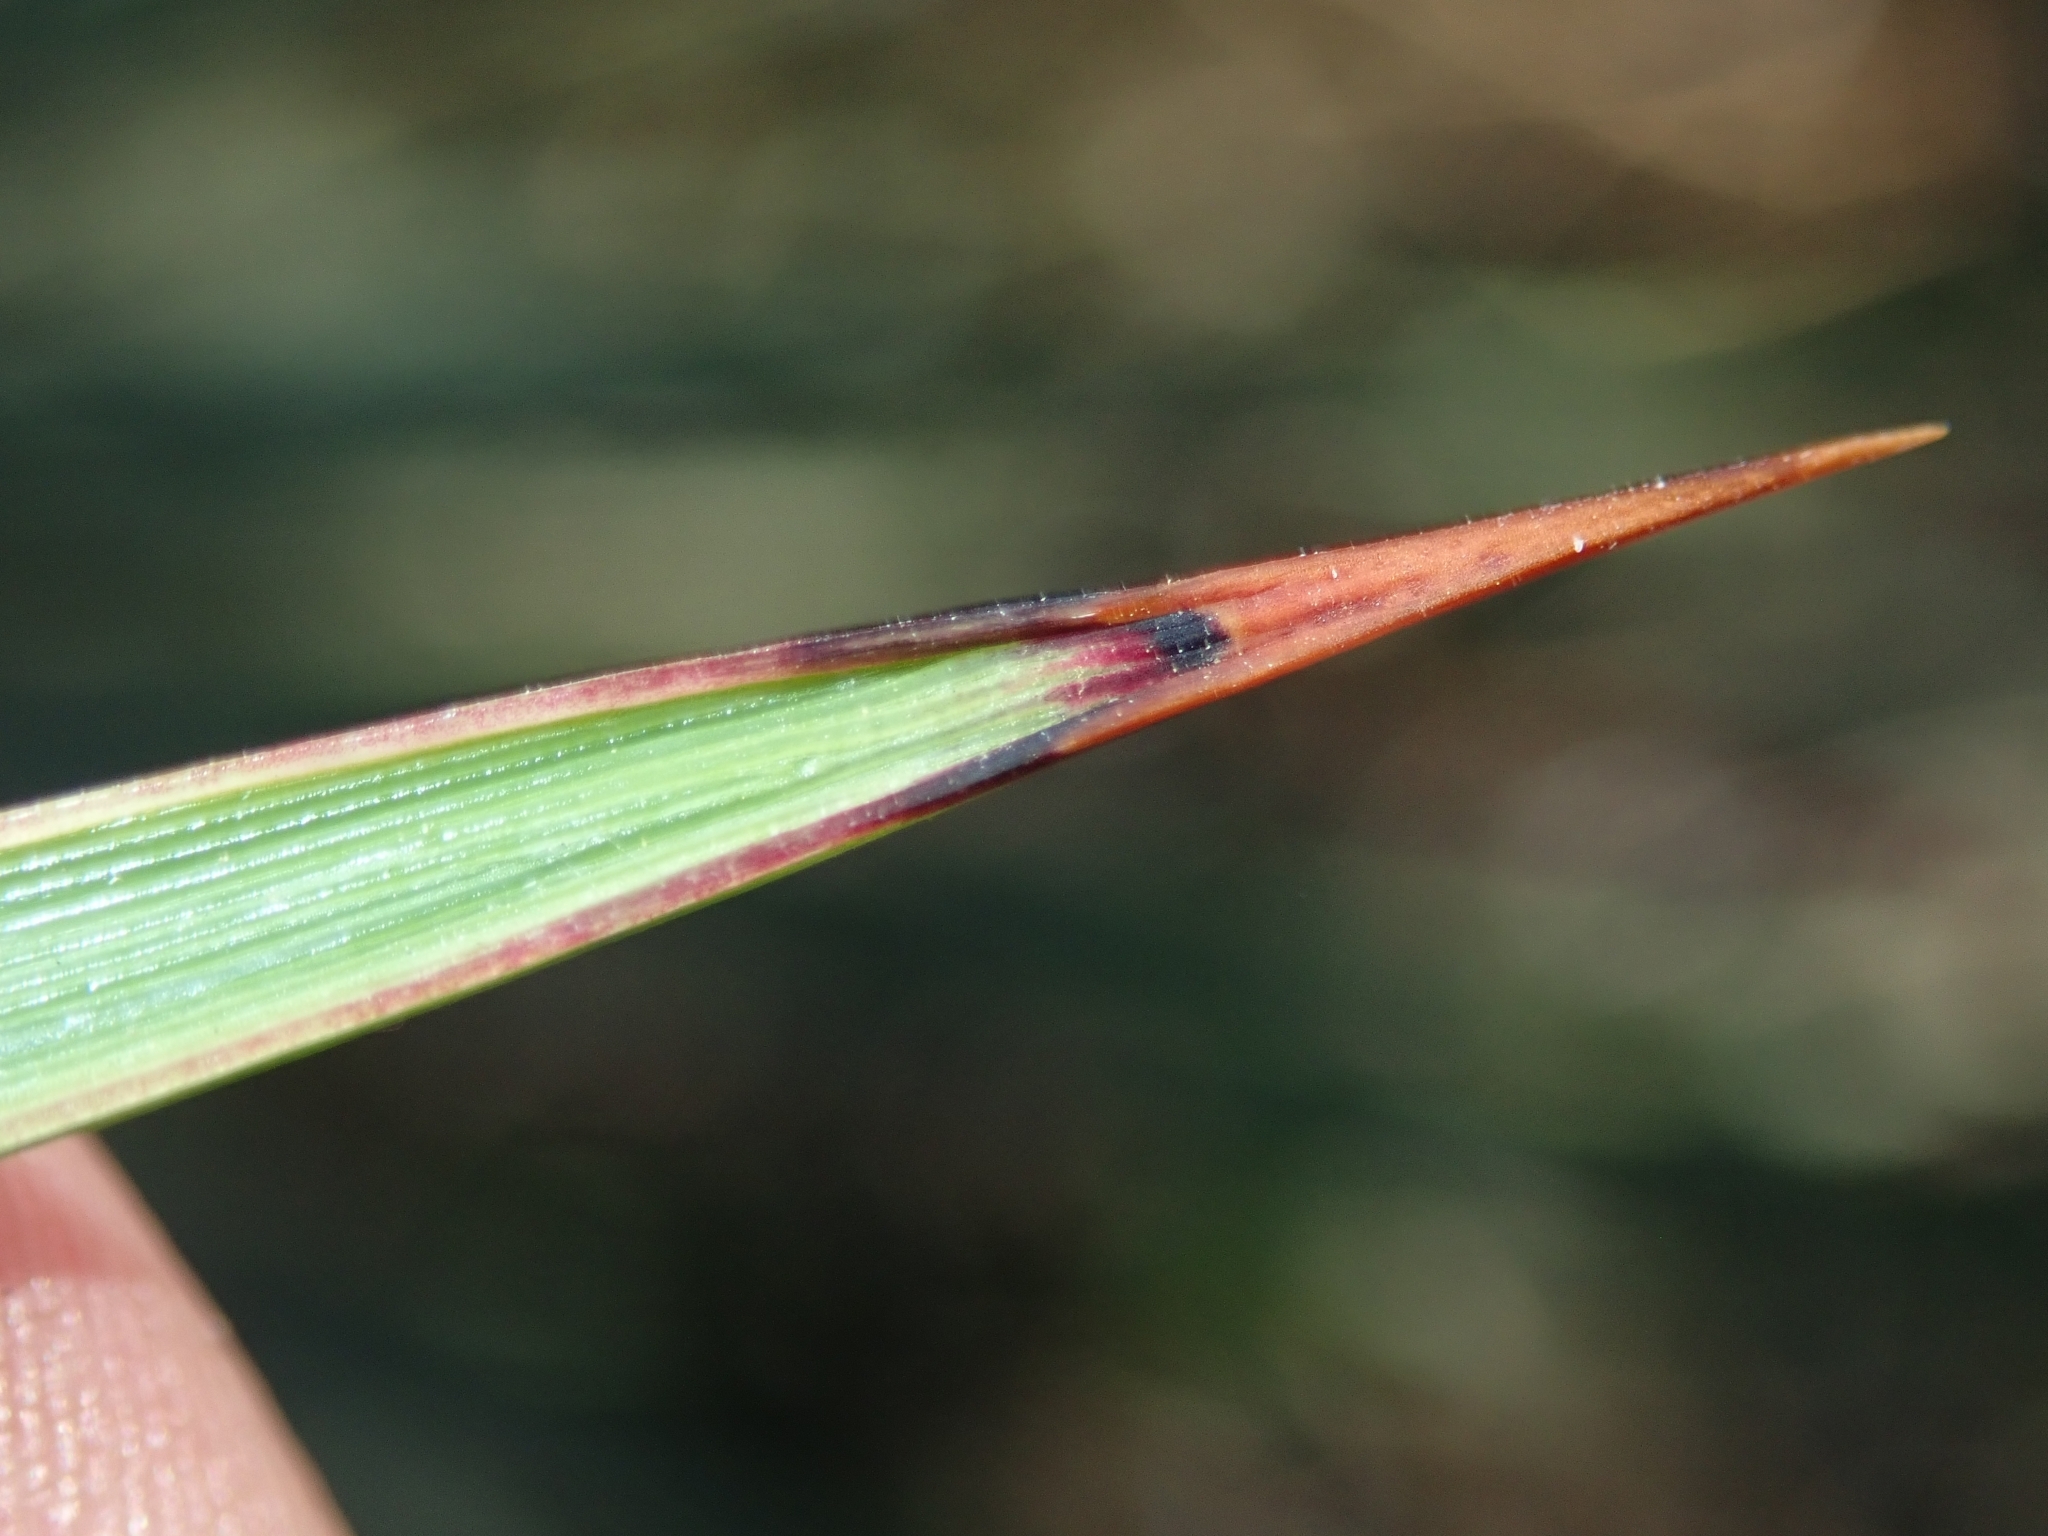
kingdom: Plantae
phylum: Tracheophyta
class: Liliopsida
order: Asparagales
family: Asparagaceae
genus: Hesperoyucca
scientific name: Hesperoyucca whipplei
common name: Our lord's-candle
